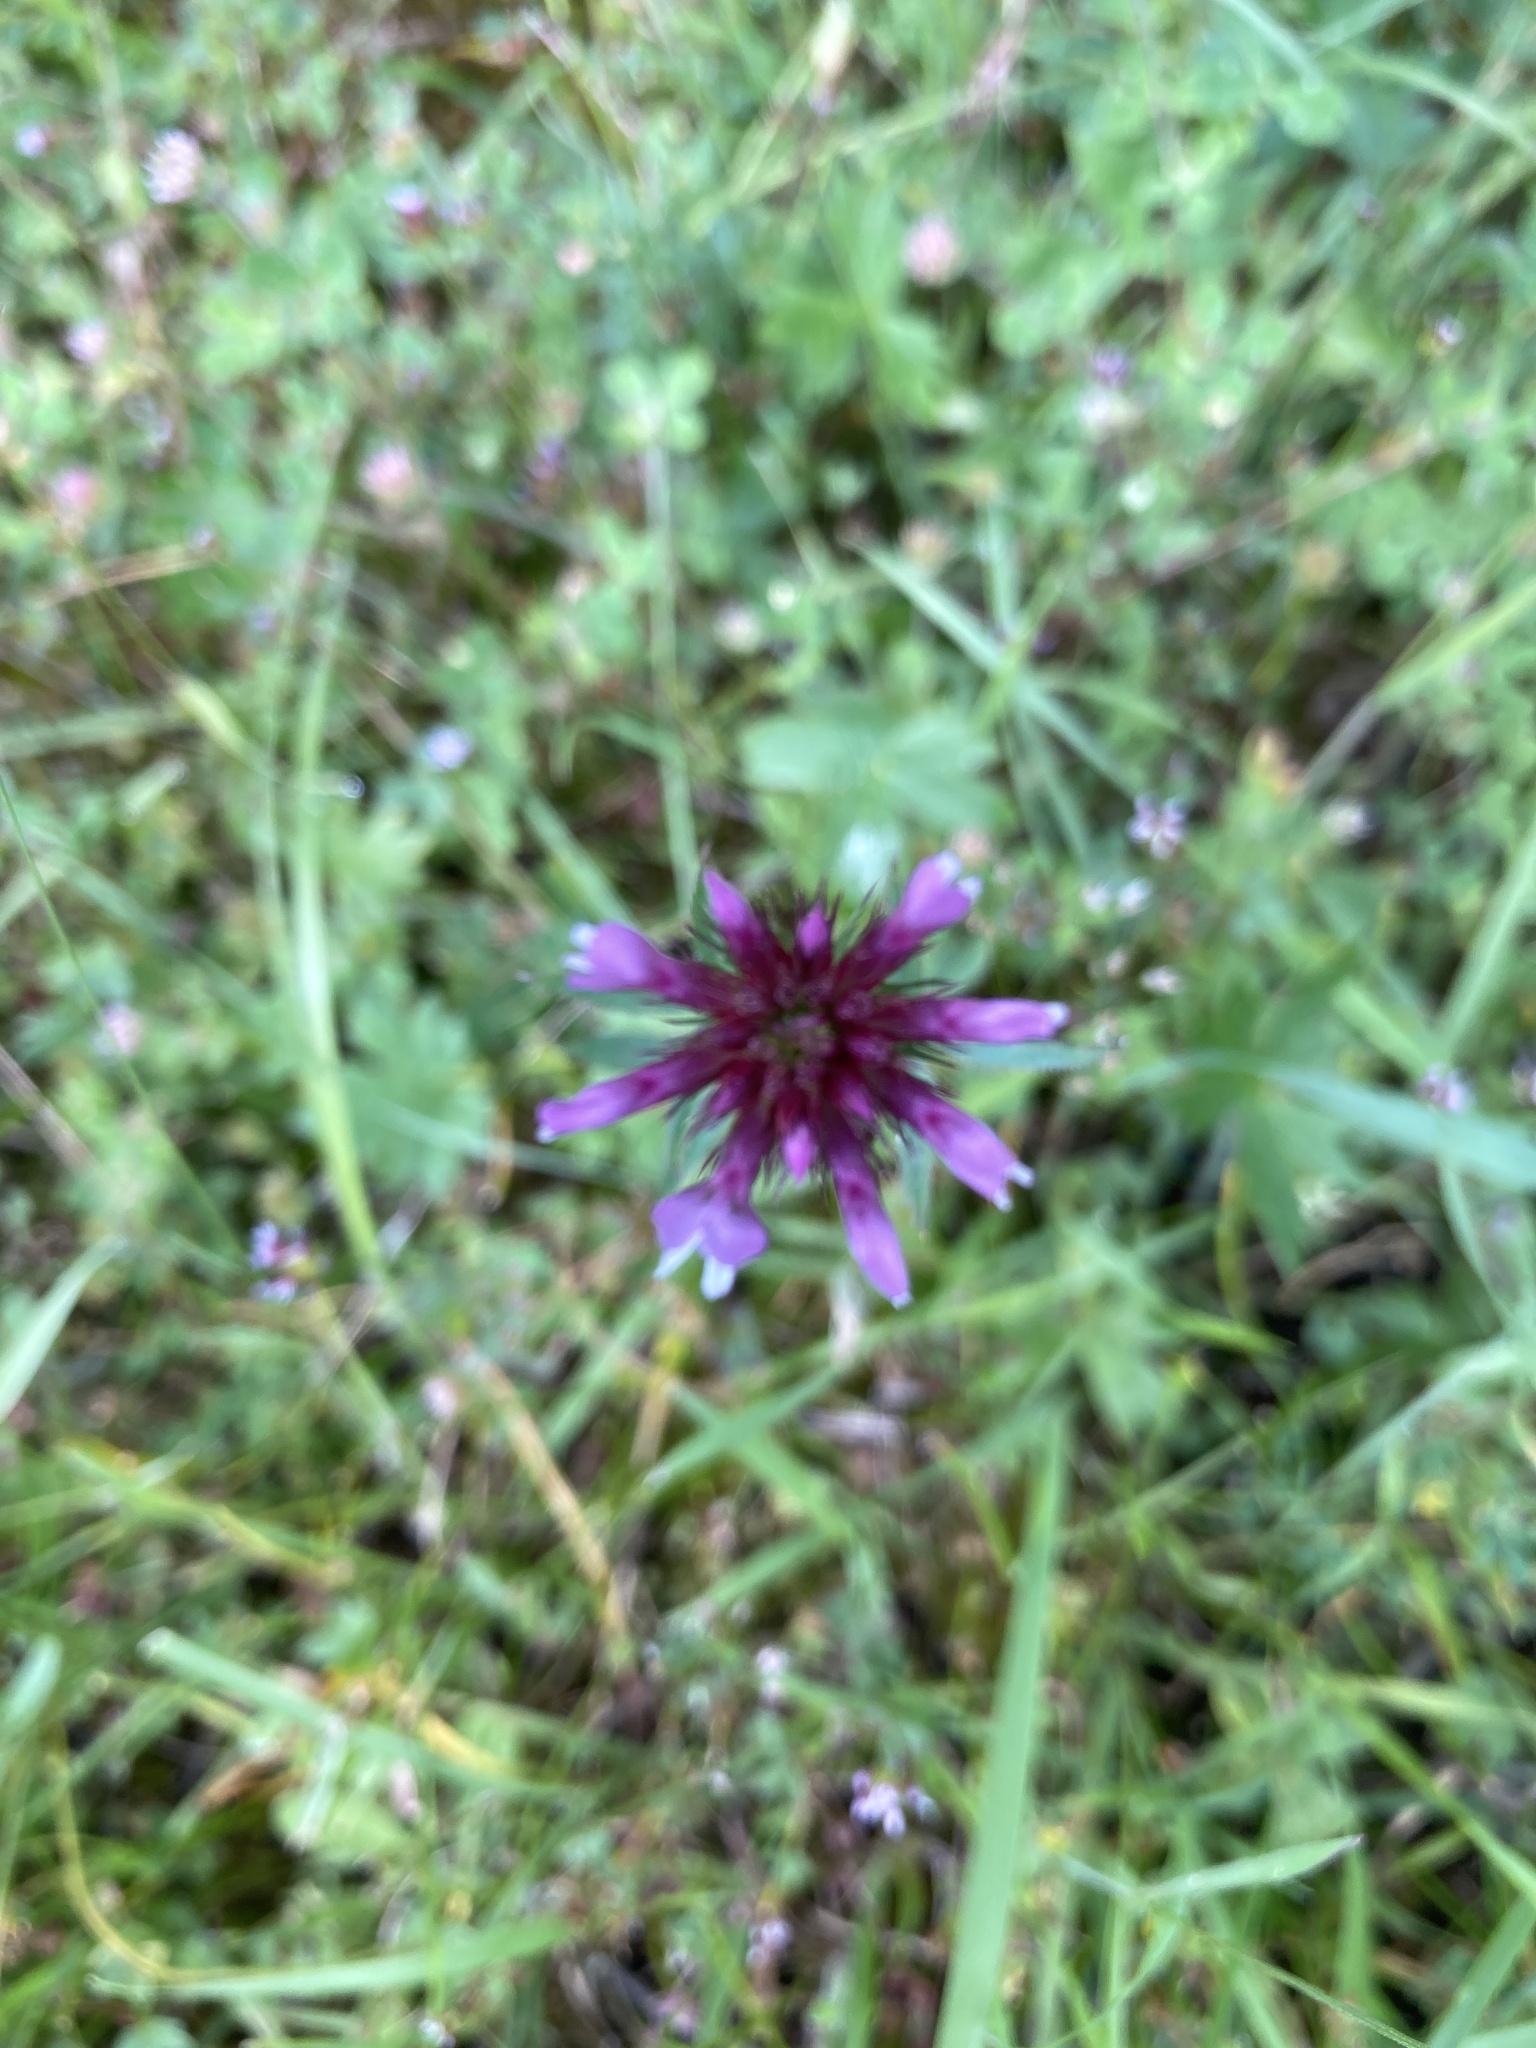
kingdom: Plantae
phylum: Tracheophyta
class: Magnoliopsida
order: Fabales
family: Fabaceae
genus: Trifolium
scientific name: Trifolium willdenovii
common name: Tomcat clover
